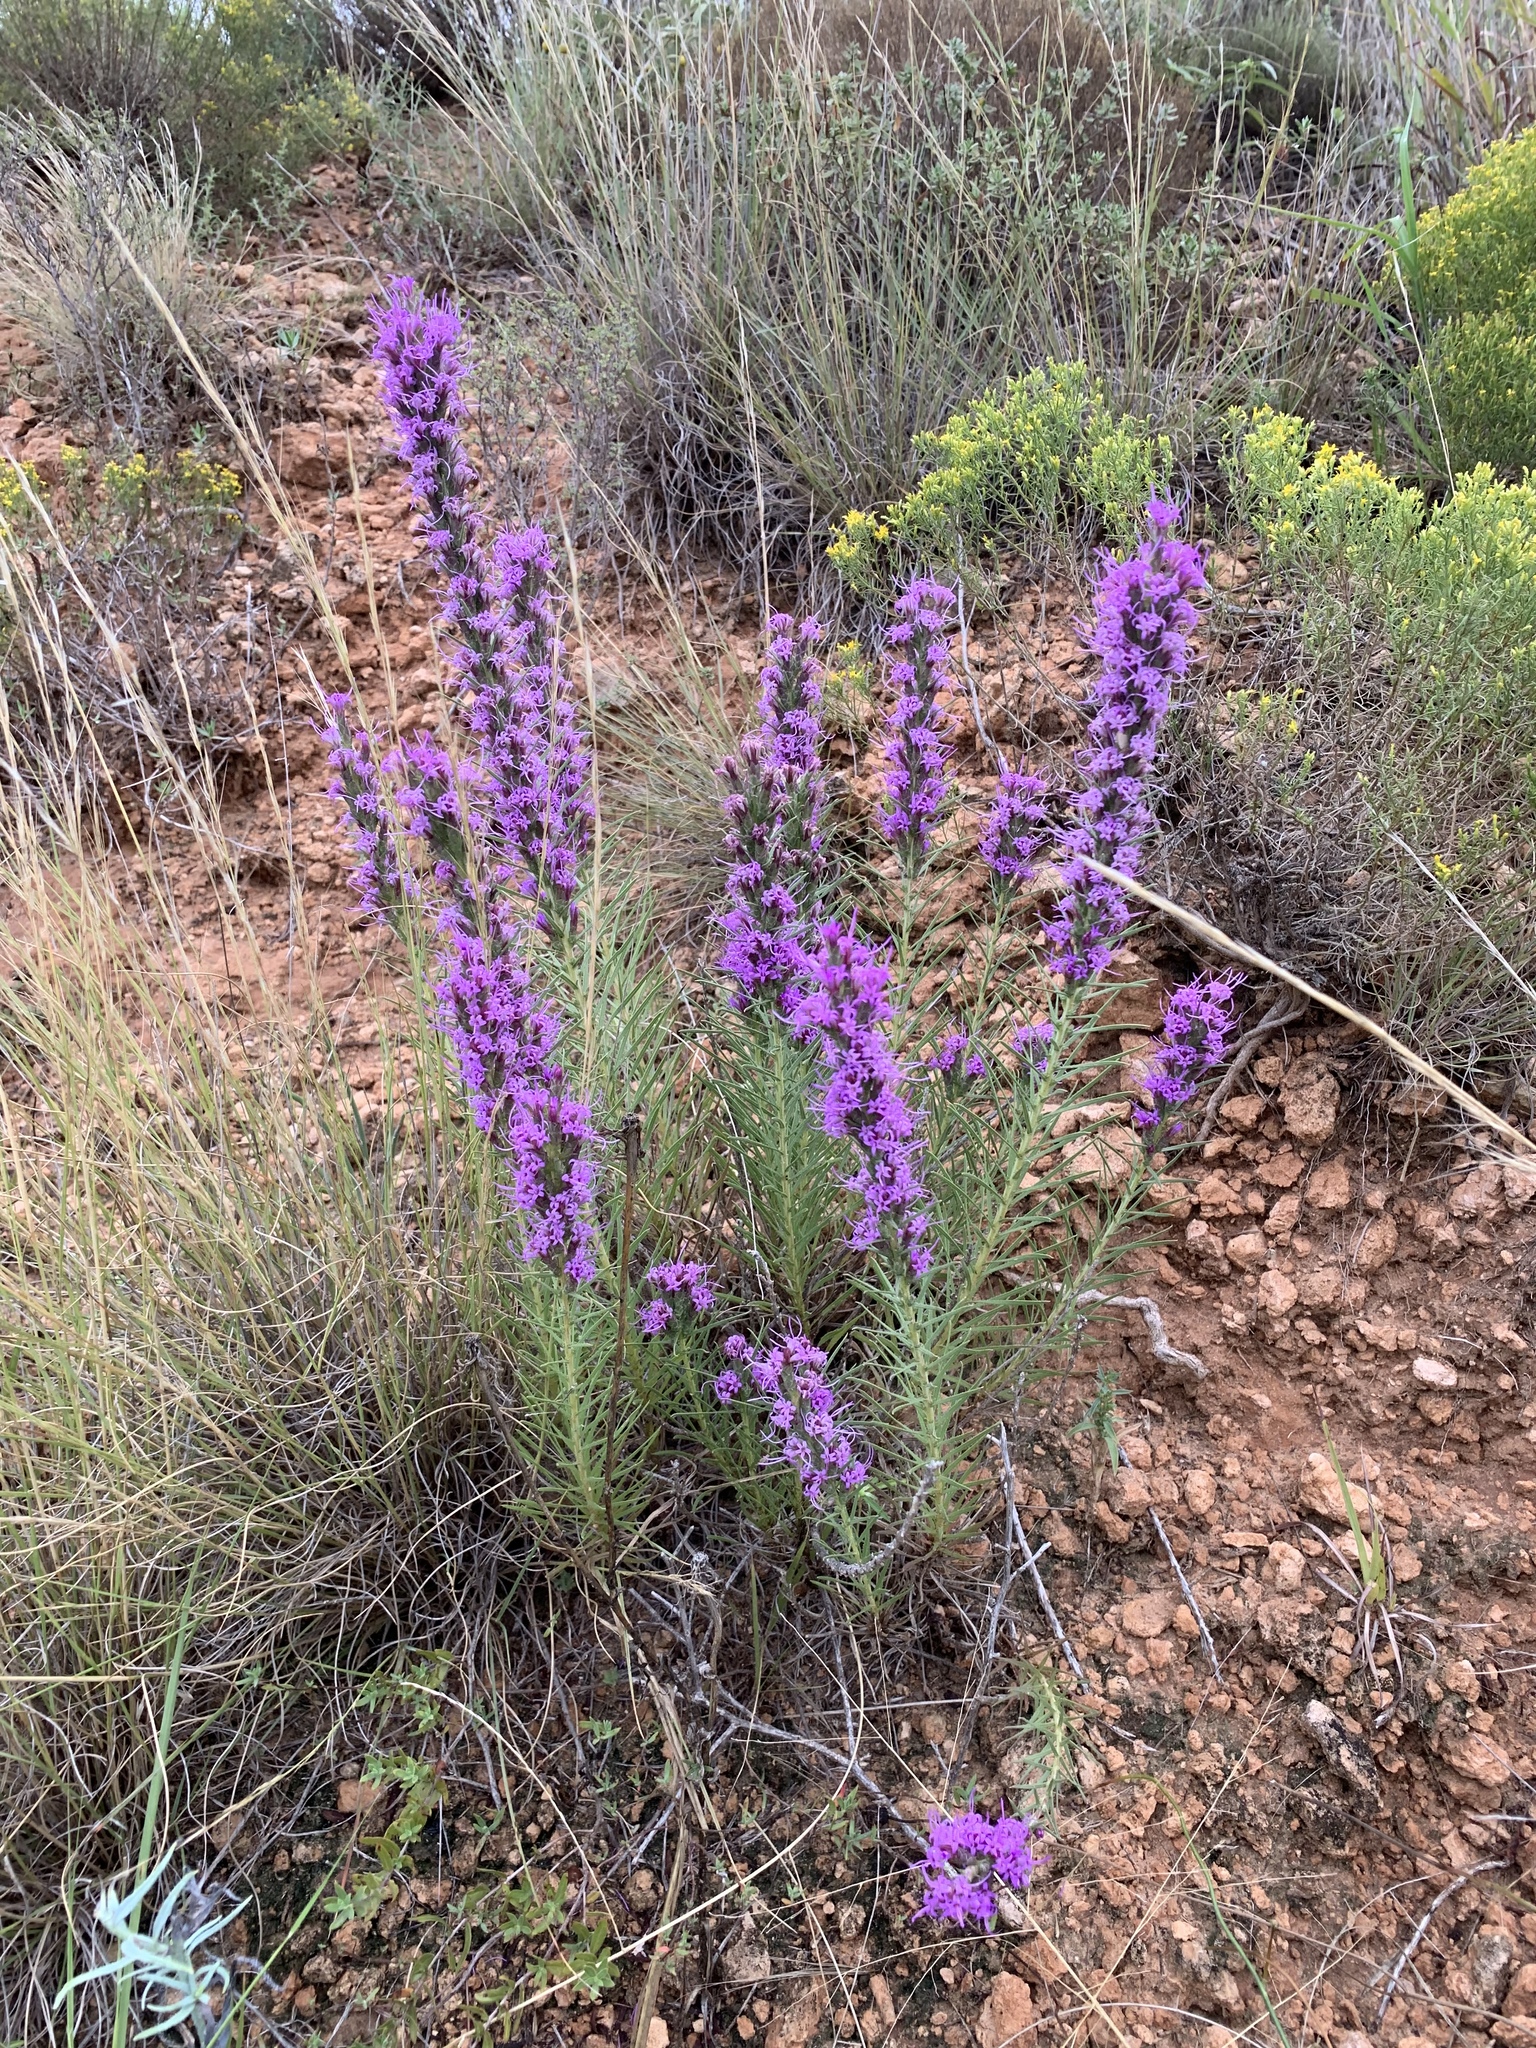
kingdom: Plantae
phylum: Tracheophyta
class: Magnoliopsida
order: Asterales
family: Asteraceae
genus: Liatris
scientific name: Liatris punctata
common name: Dotted gayfeather
